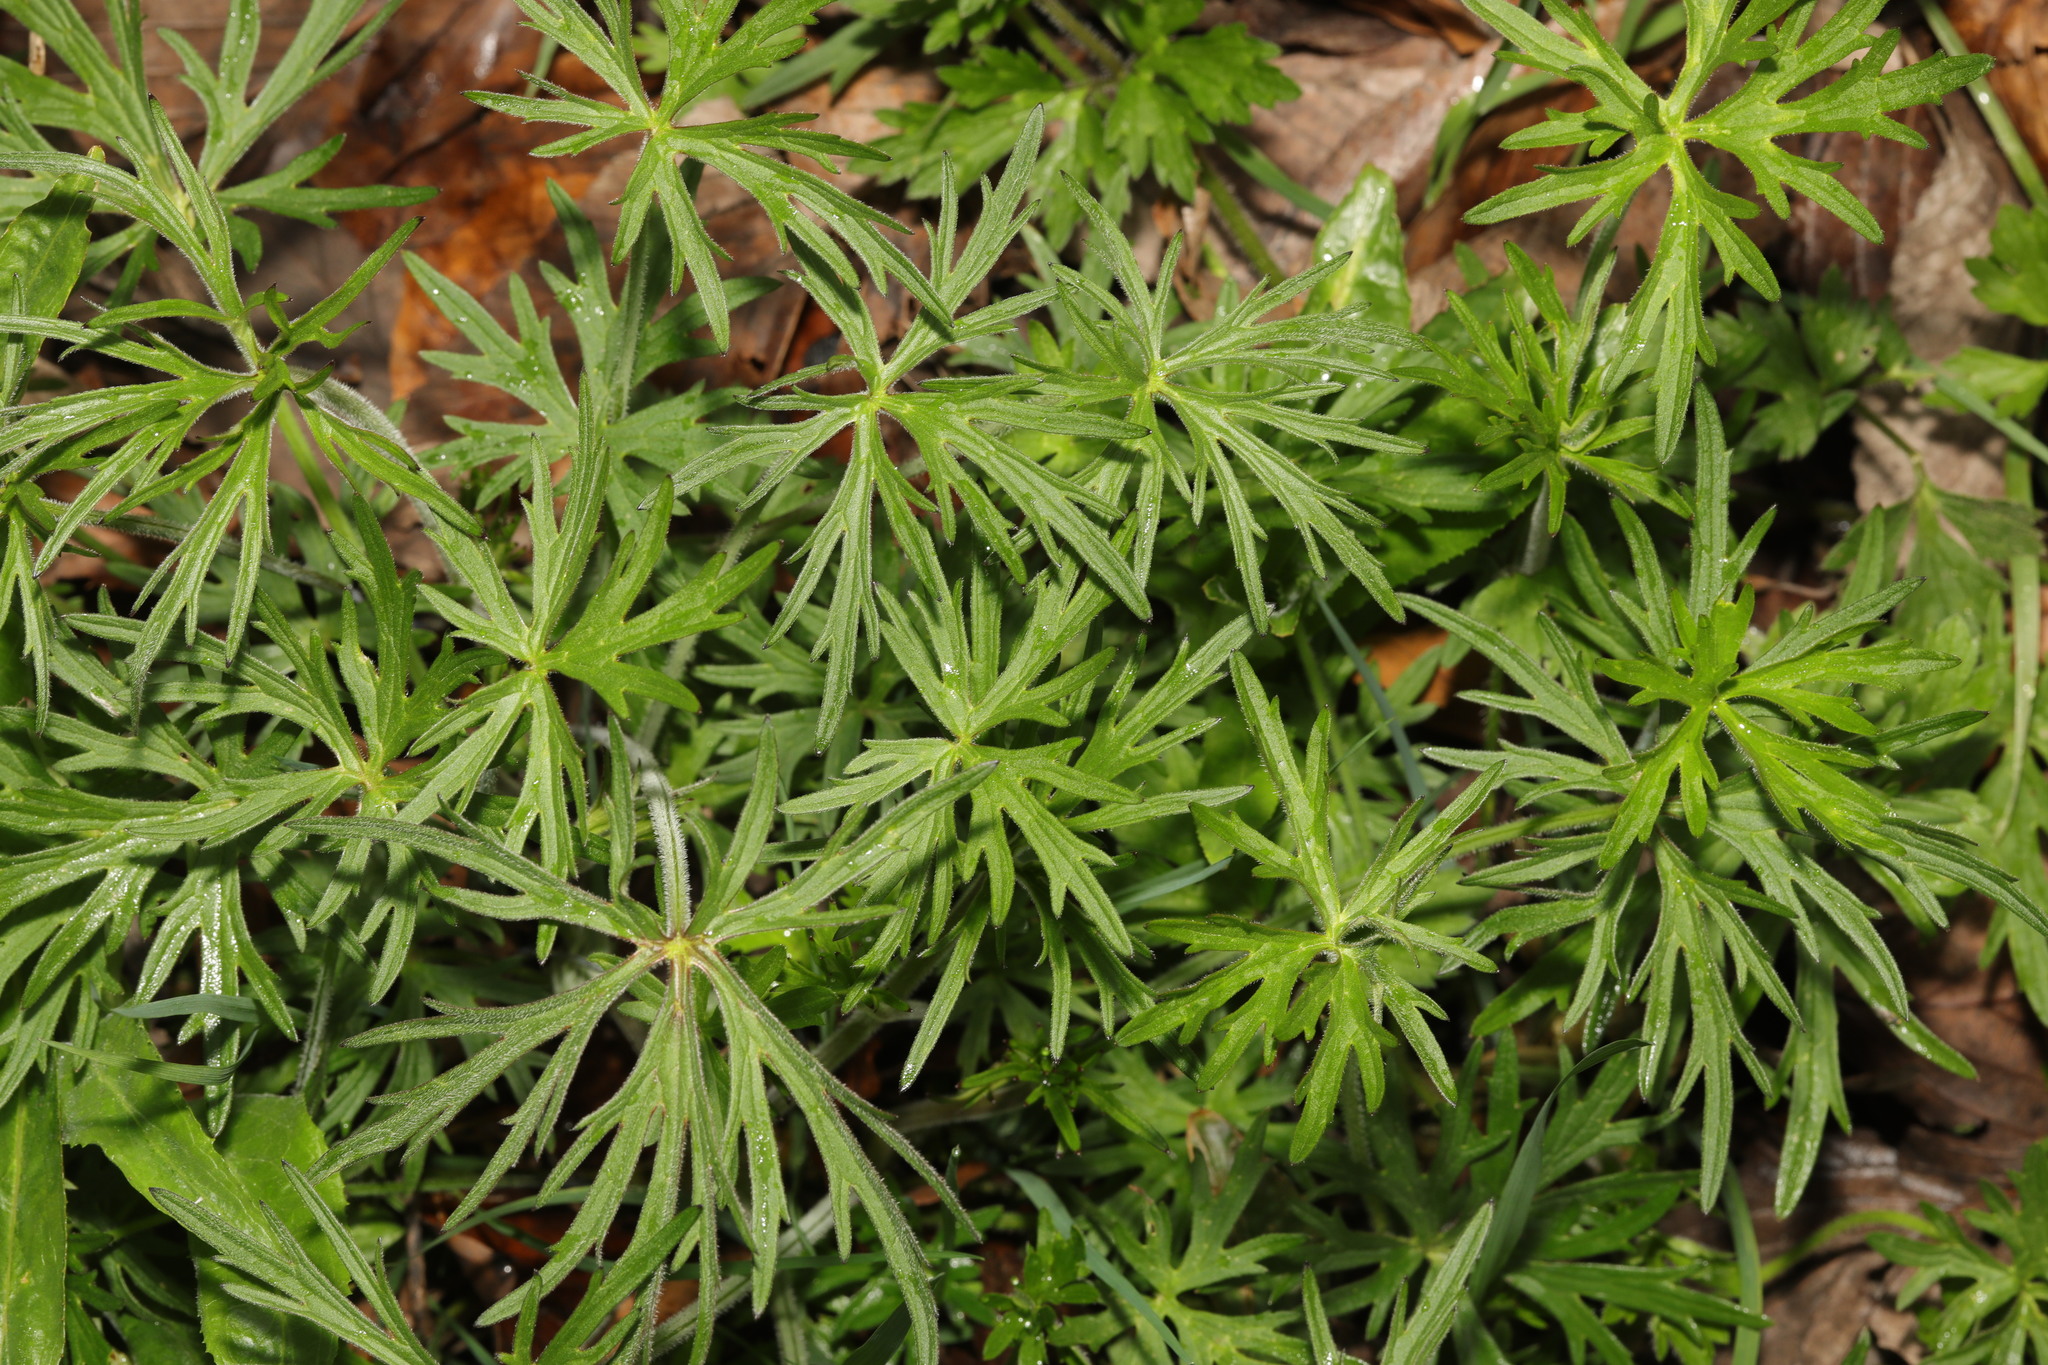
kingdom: Plantae
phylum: Tracheophyta
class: Magnoliopsida
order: Ranunculales
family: Ranunculaceae
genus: Ranunculus
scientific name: Ranunculus acris
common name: Meadow buttercup
